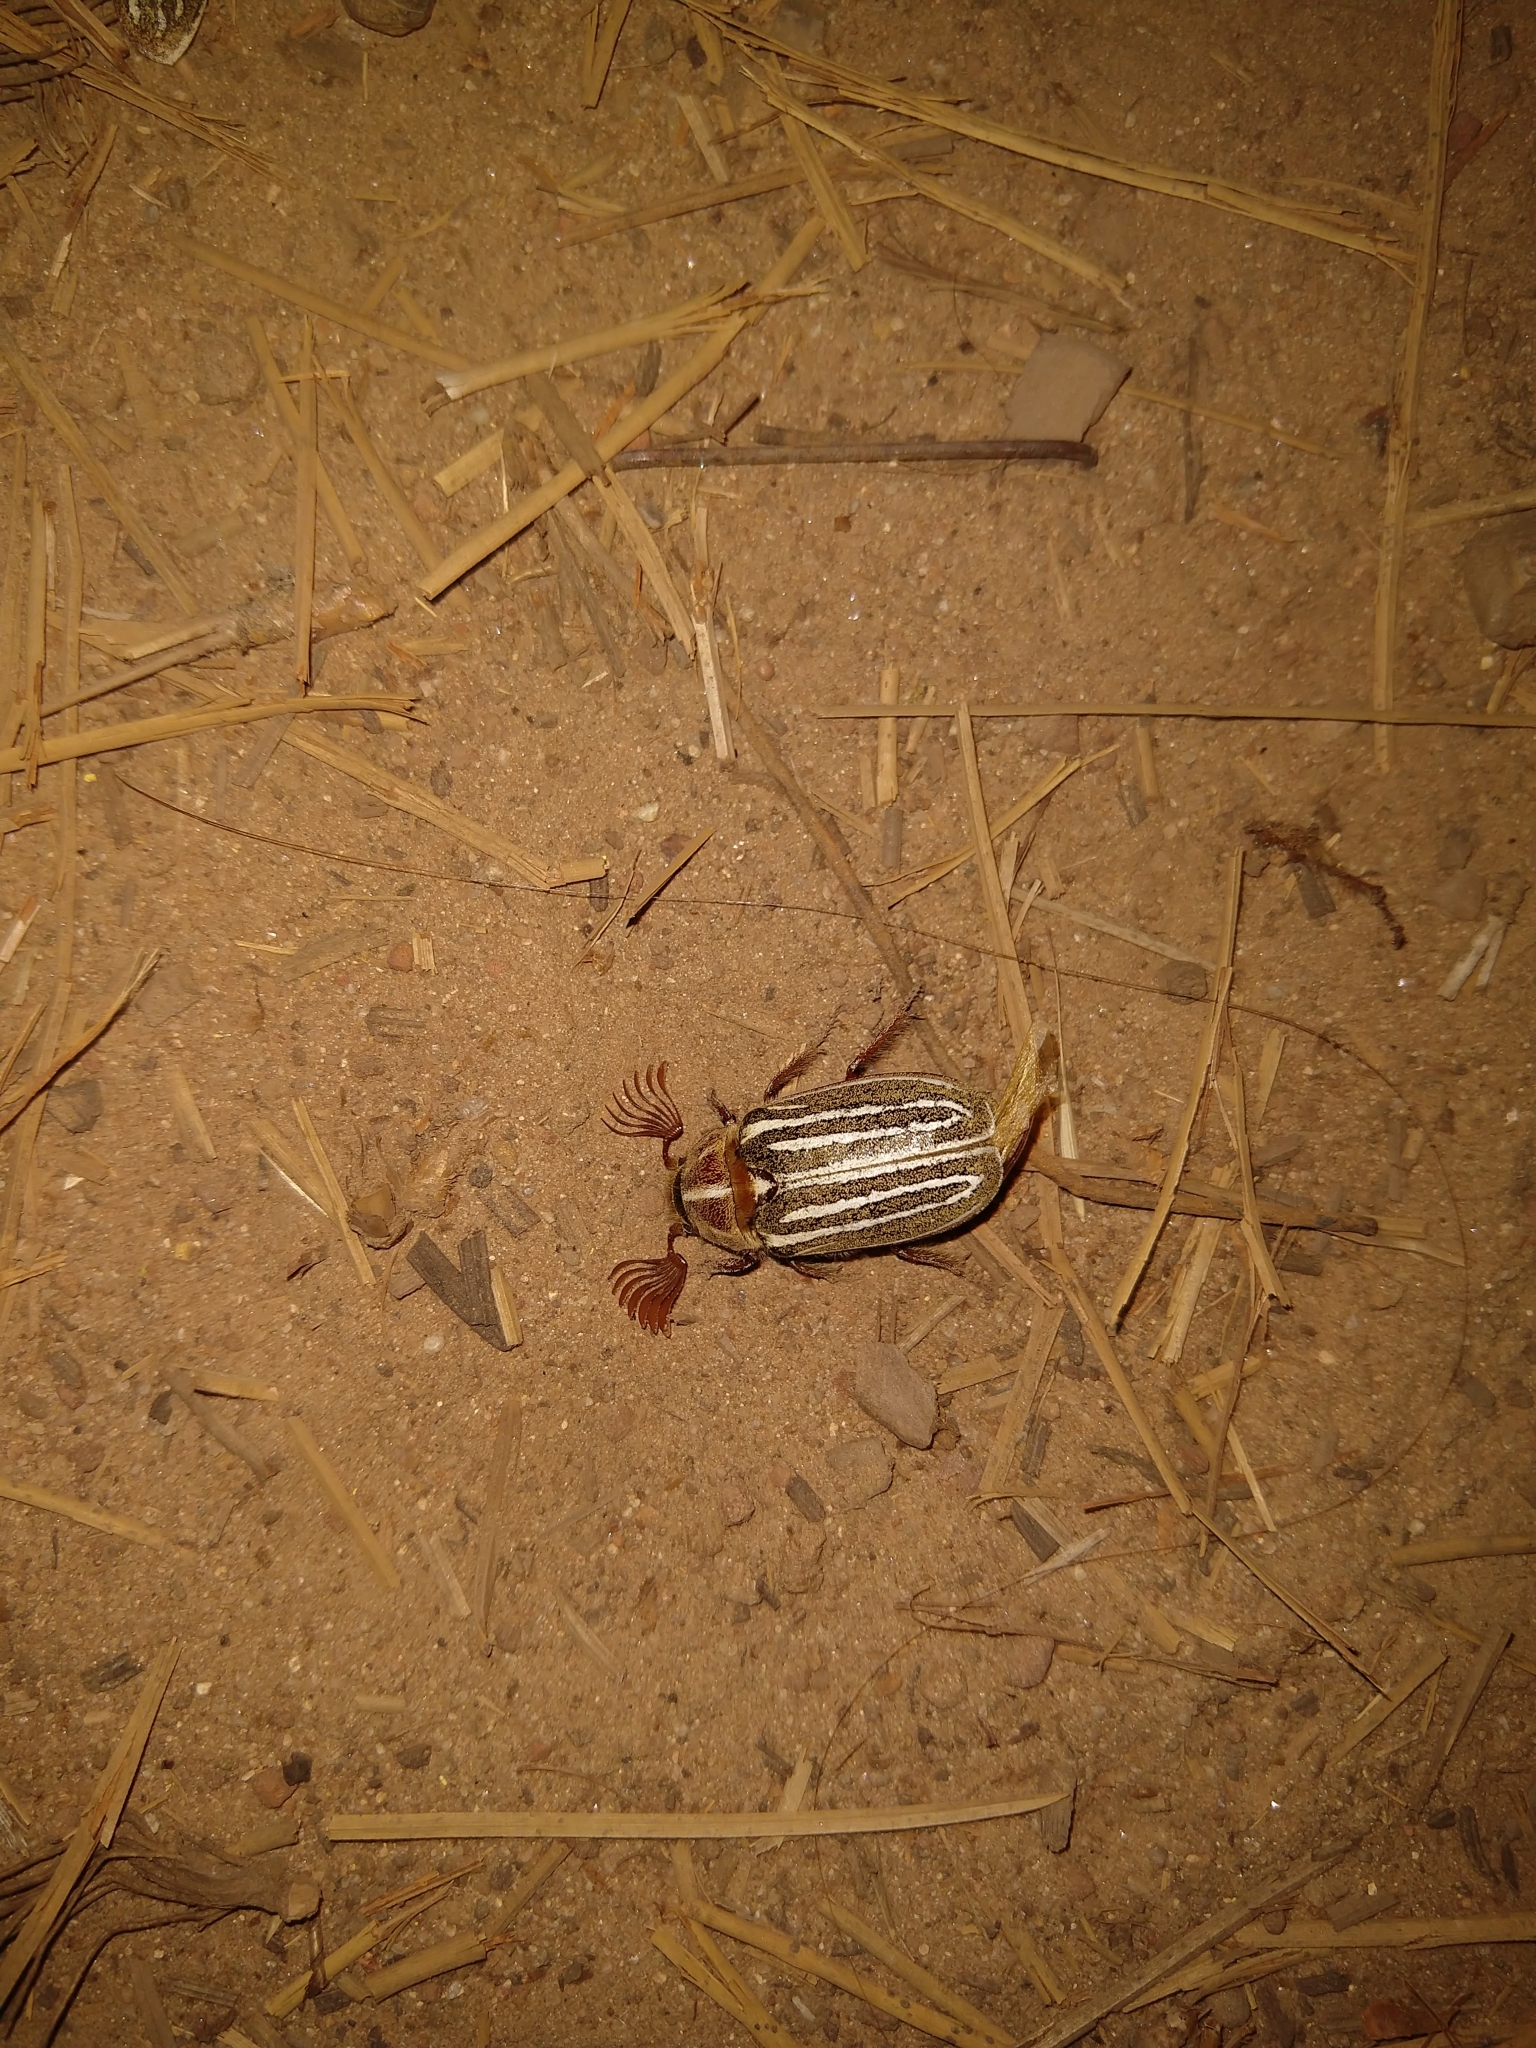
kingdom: Animalia
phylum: Arthropoda
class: Insecta
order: Coleoptera
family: Scarabaeidae
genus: Polyphylla
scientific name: Polyphylla decemlineata
